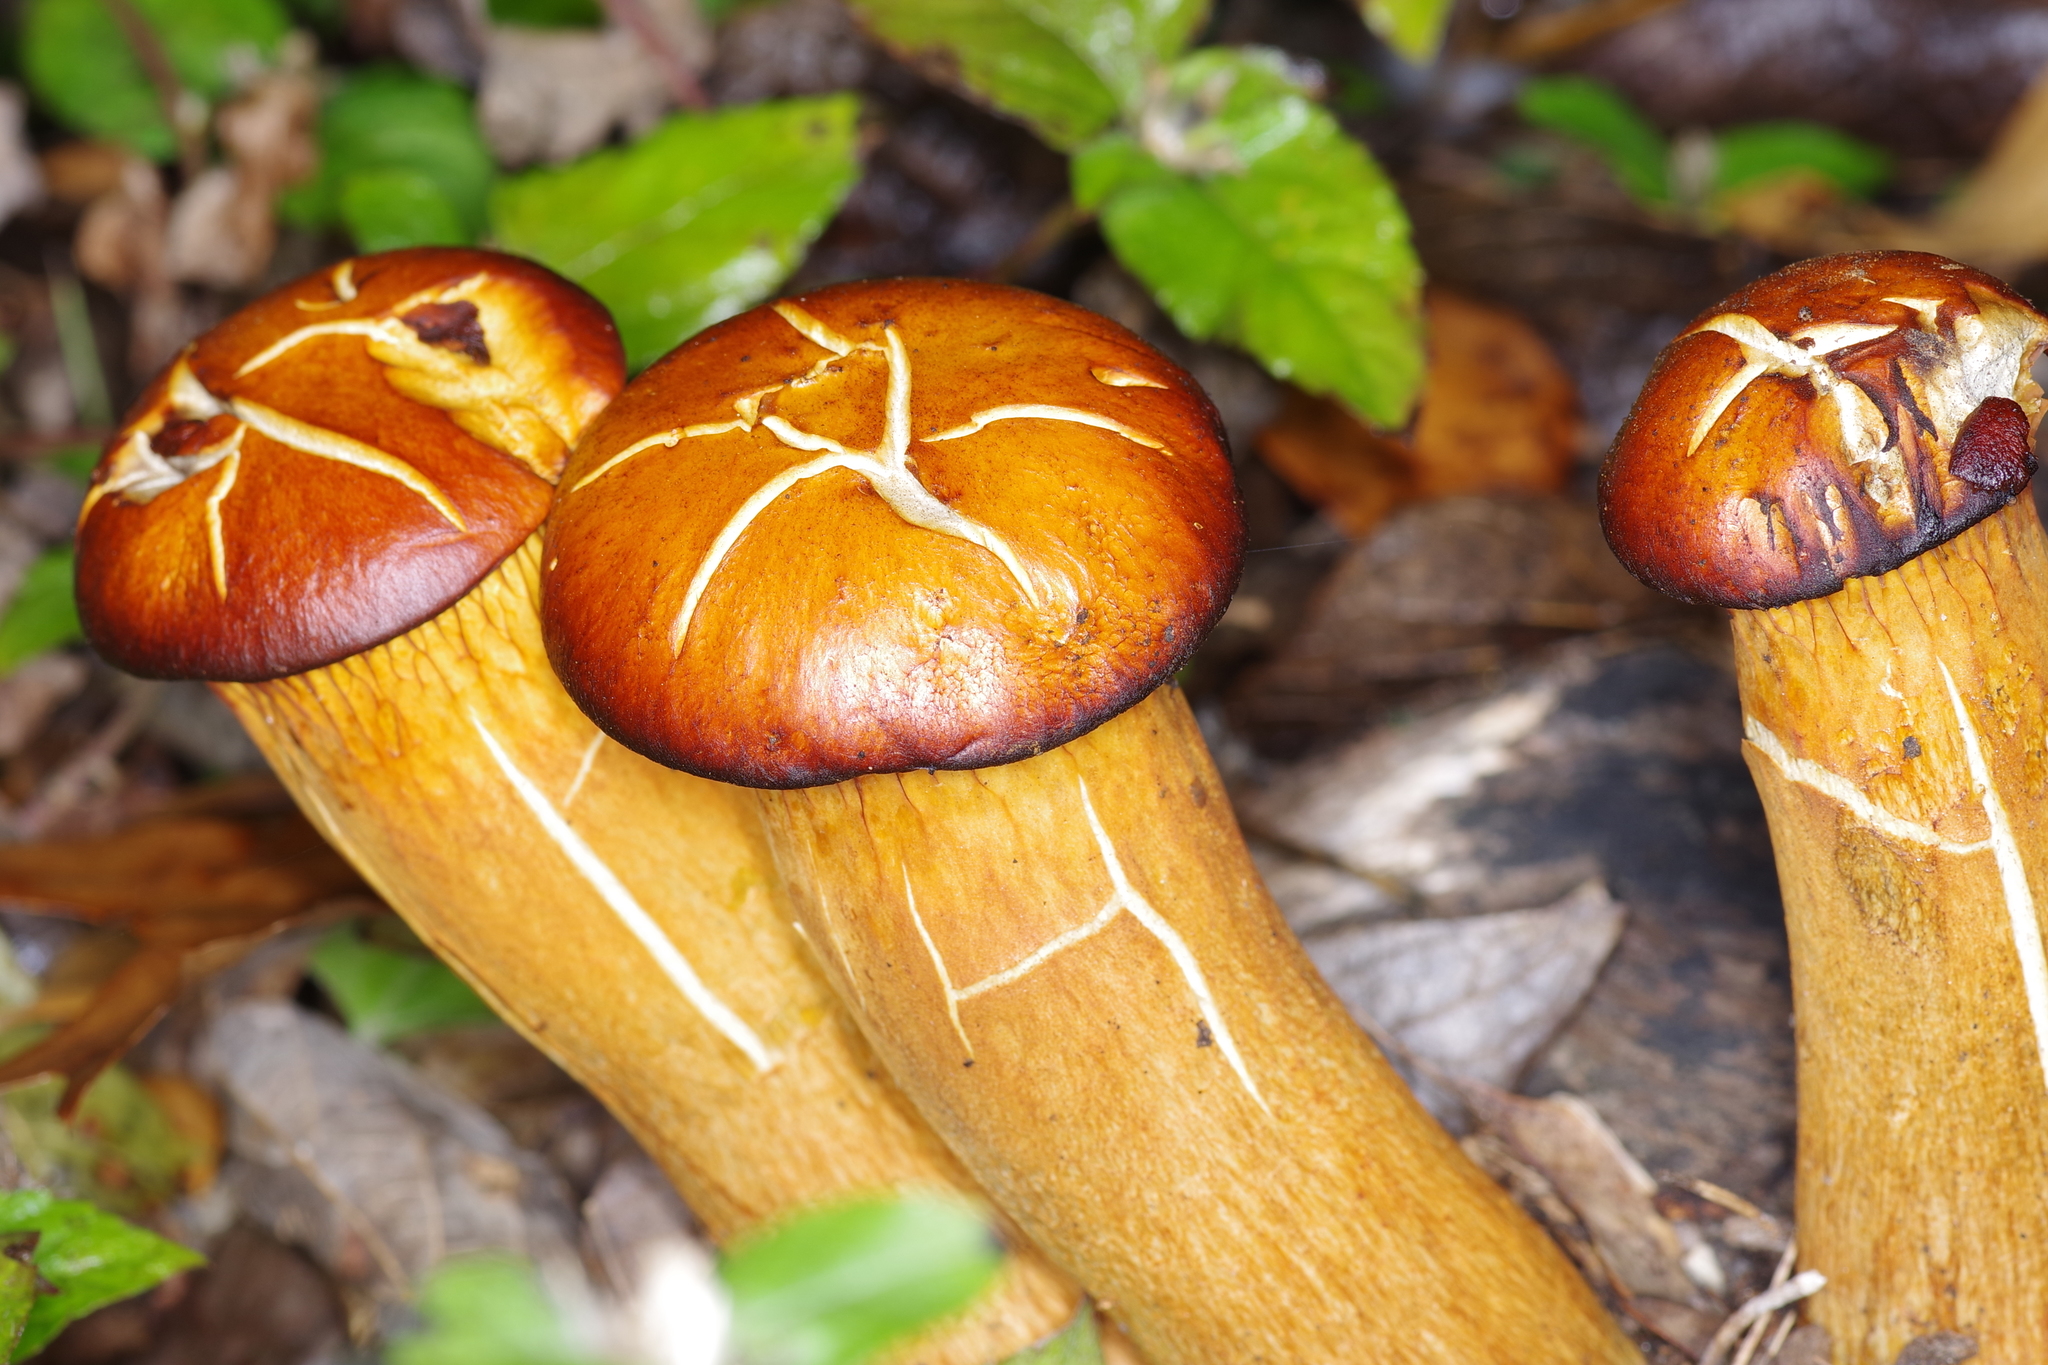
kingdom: Fungi
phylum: Basidiomycota
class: Agaricomycetes
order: Agaricales
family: Omphalotaceae
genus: Omphalotus
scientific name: Omphalotus subilludens
